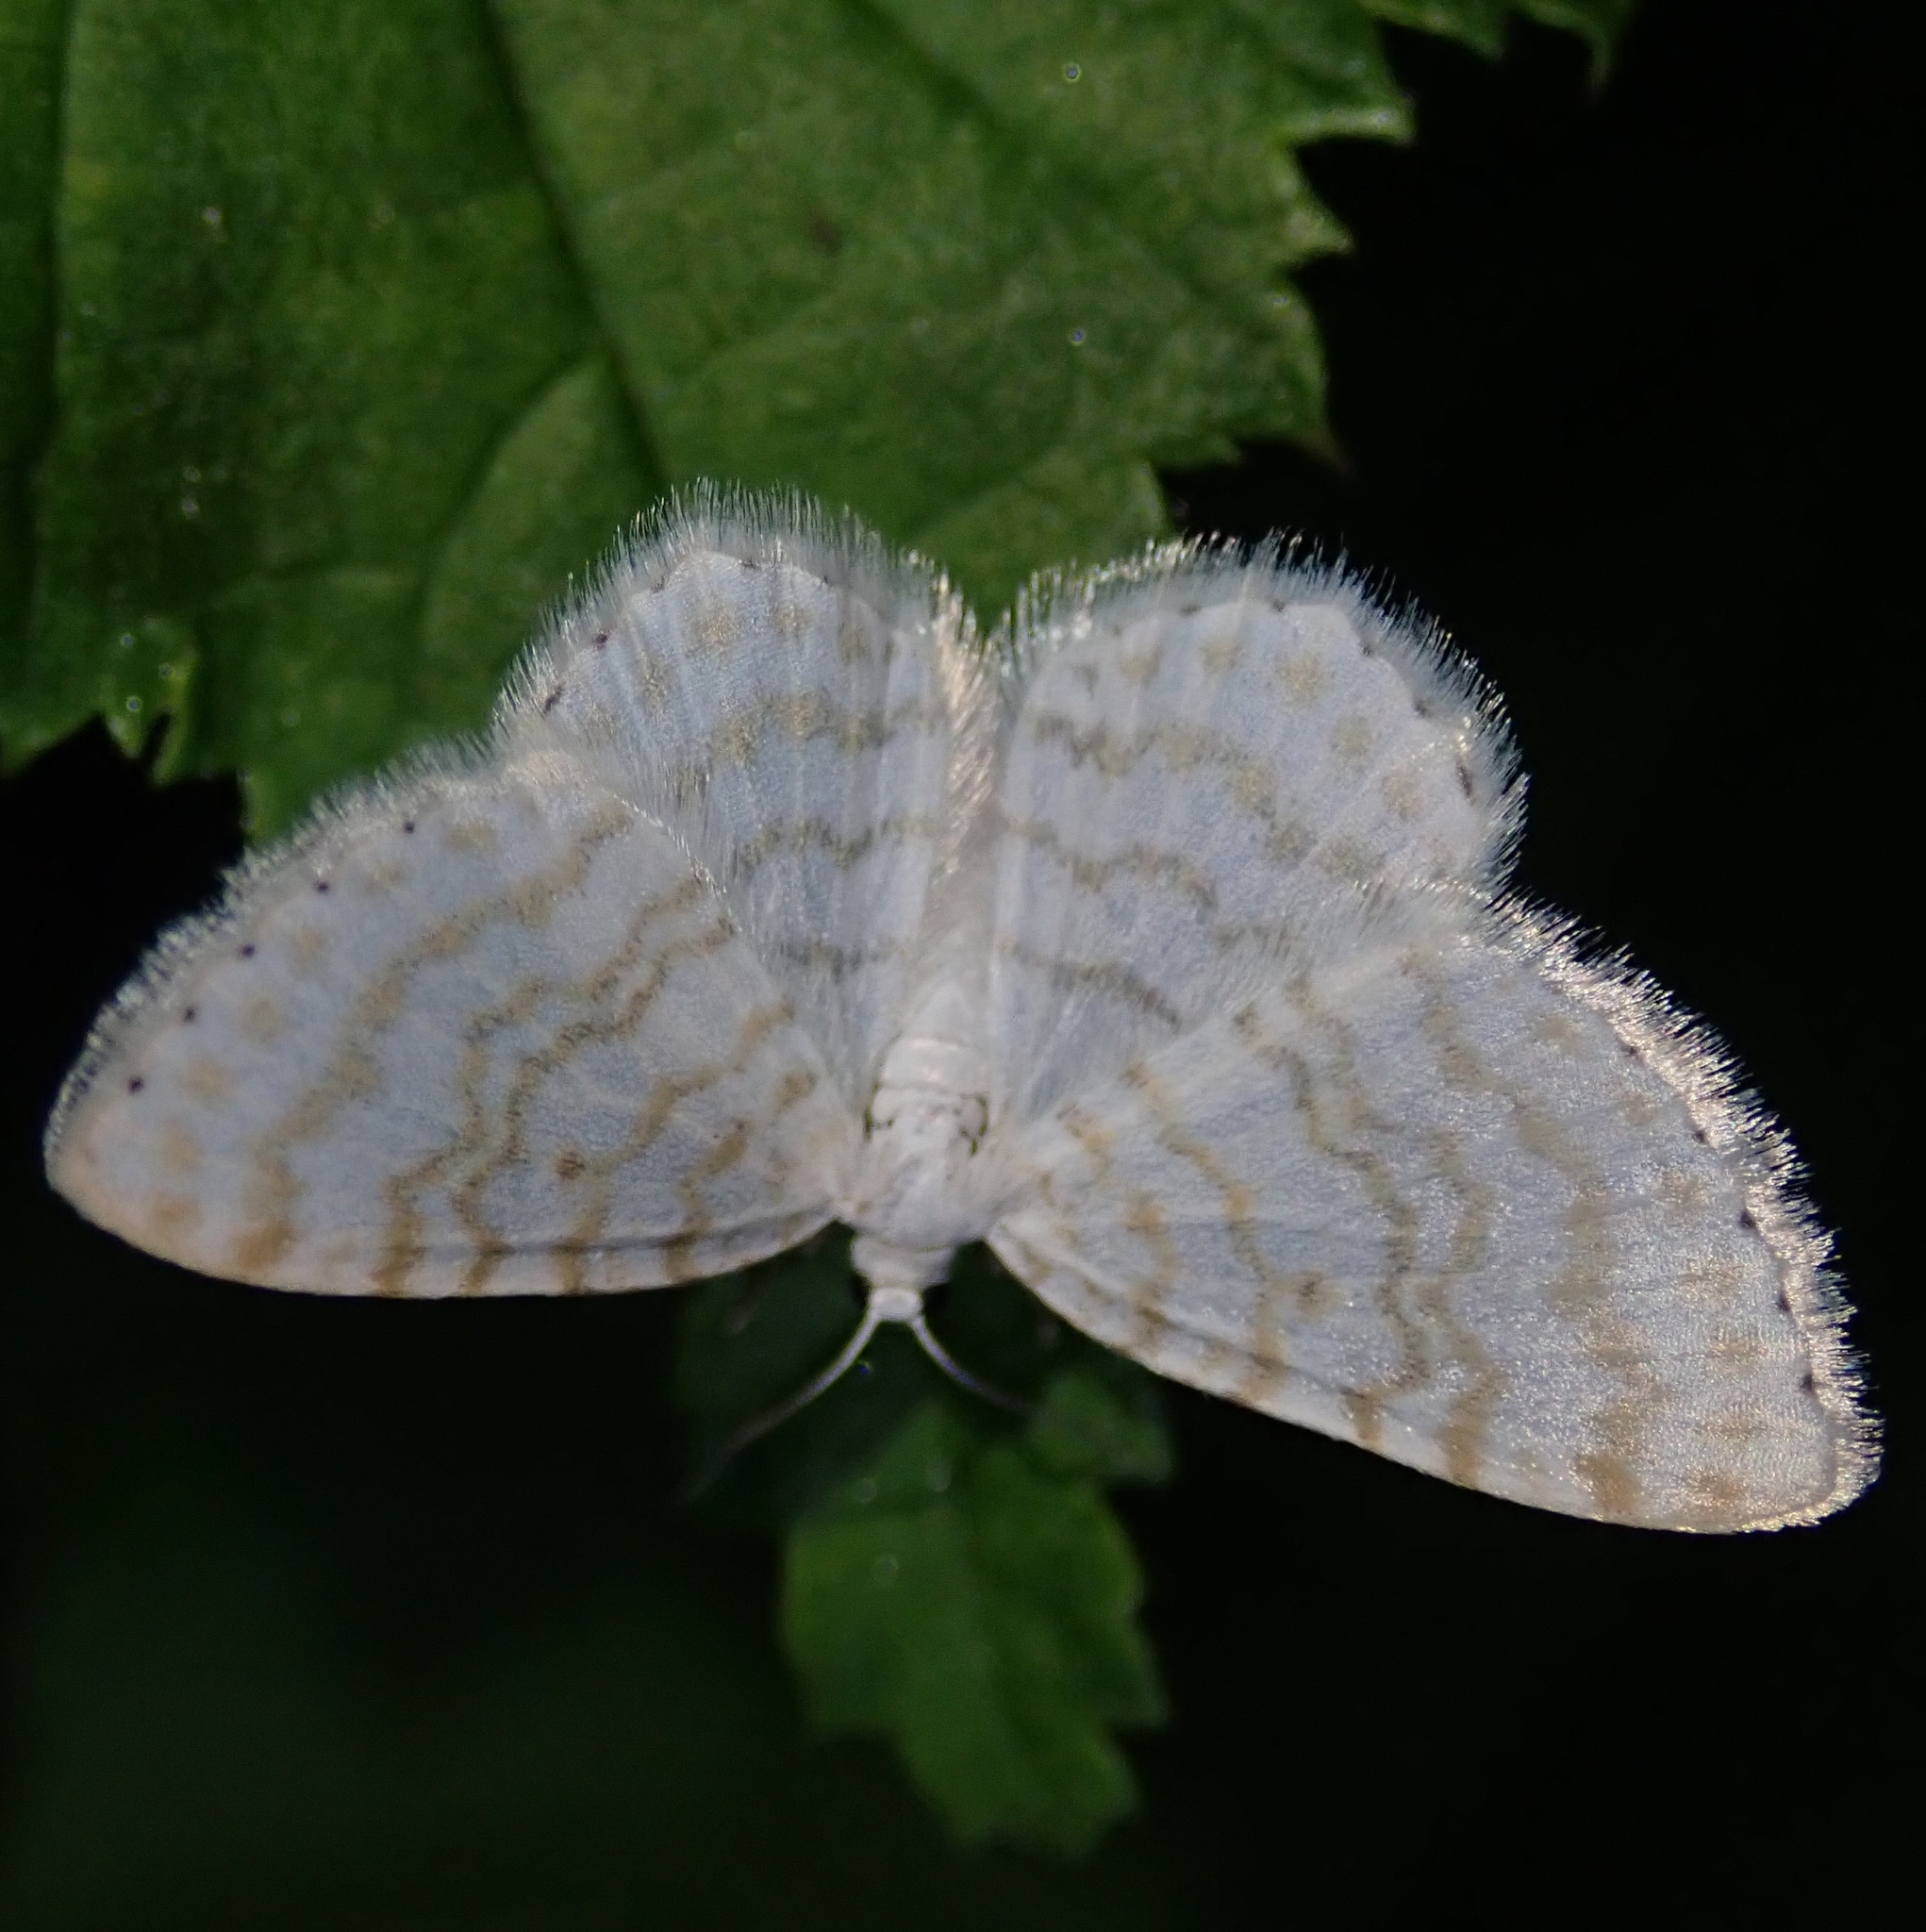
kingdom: Animalia
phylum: Arthropoda
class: Insecta
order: Lepidoptera
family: Geometridae
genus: Asthena
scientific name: Asthena albulata
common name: Small white wave
